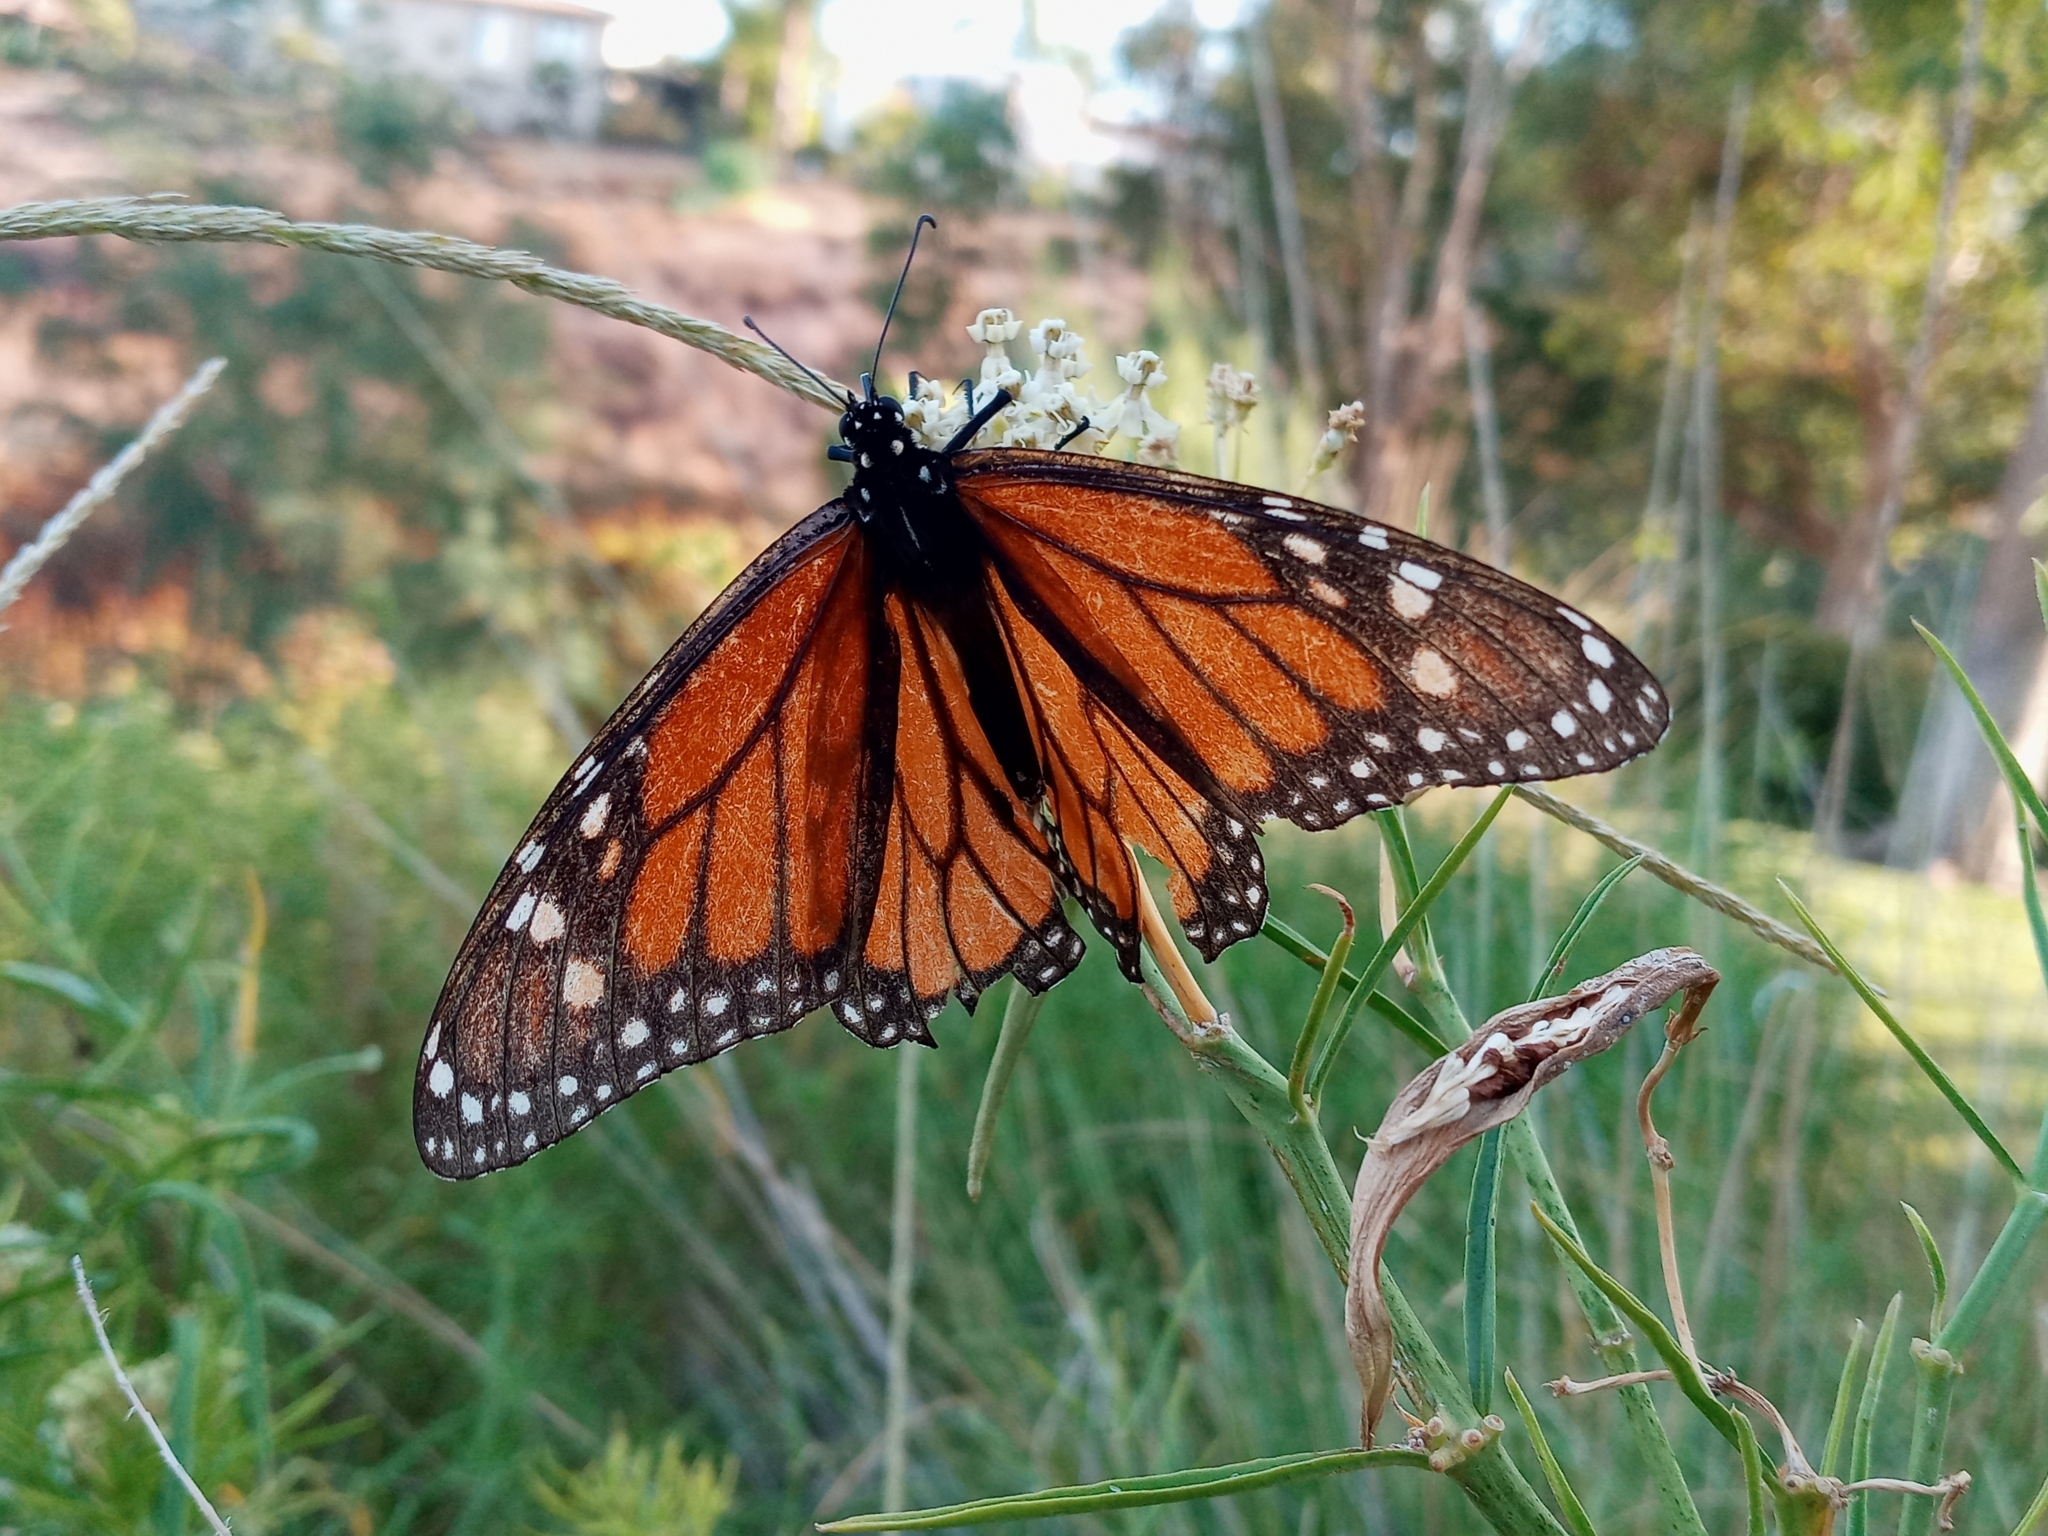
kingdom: Animalia
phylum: Arthropoda
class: Insecta
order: Lepidoptera
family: Nymphalidae
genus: Danaus
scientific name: Danaus plexippus
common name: Monarch
